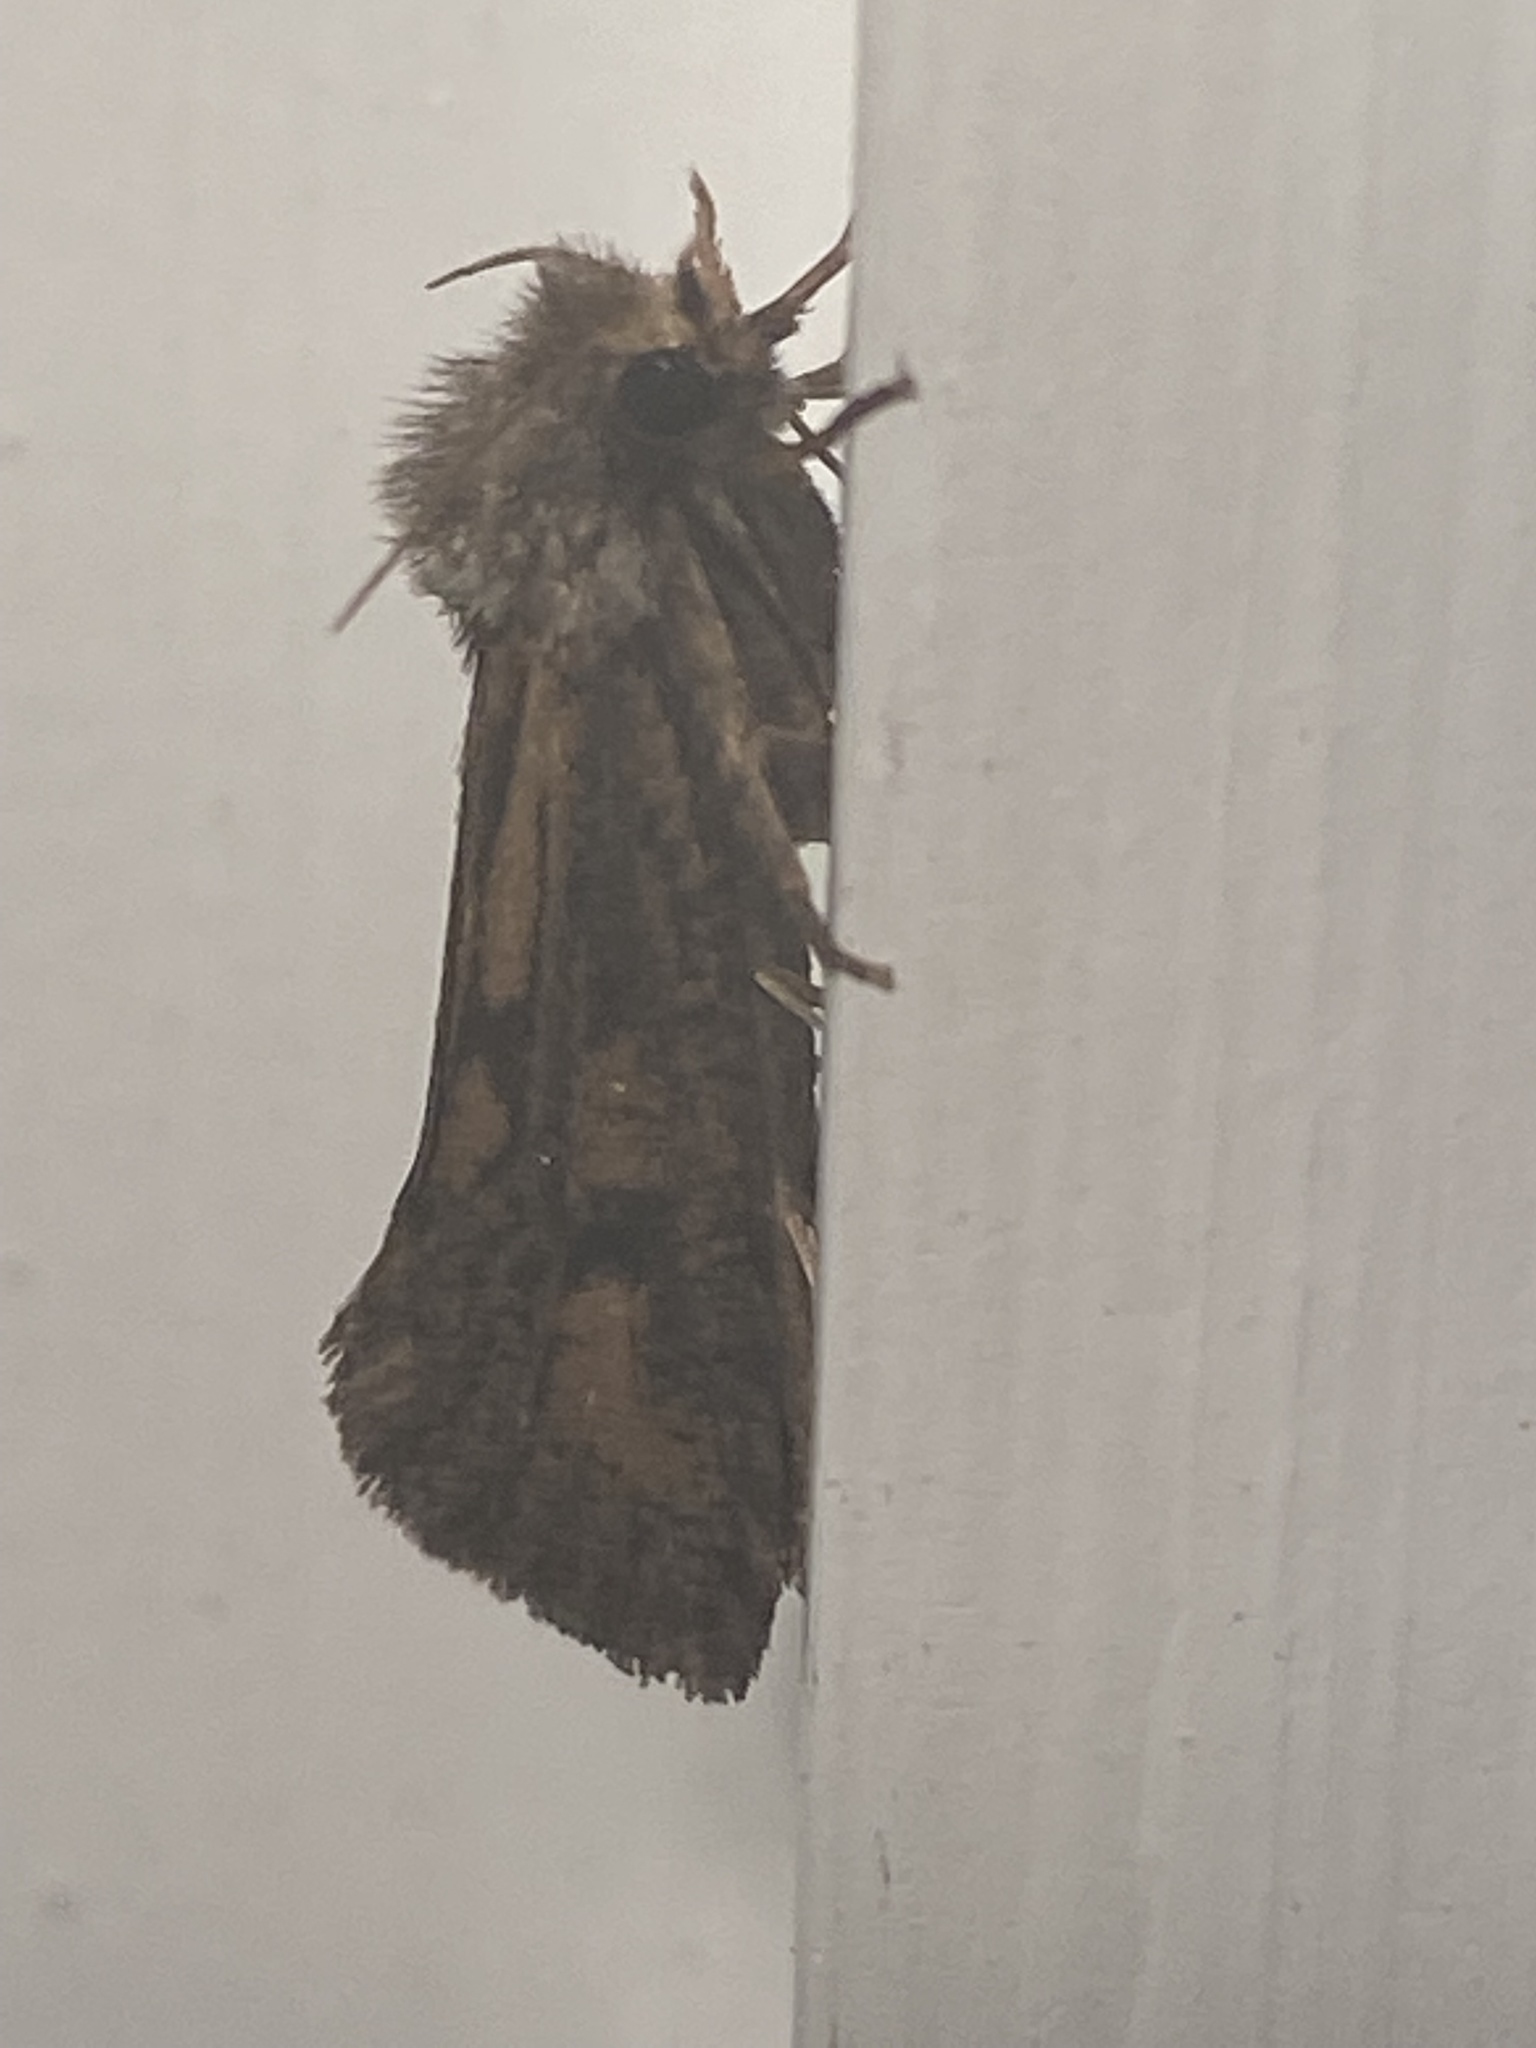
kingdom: Animalia
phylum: Arthropoda
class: Insecta
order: Lepidoptera
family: Tineidae
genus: Acrolophus
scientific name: Acrolophus popeanella
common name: Clemens' grass tubeworm moth
